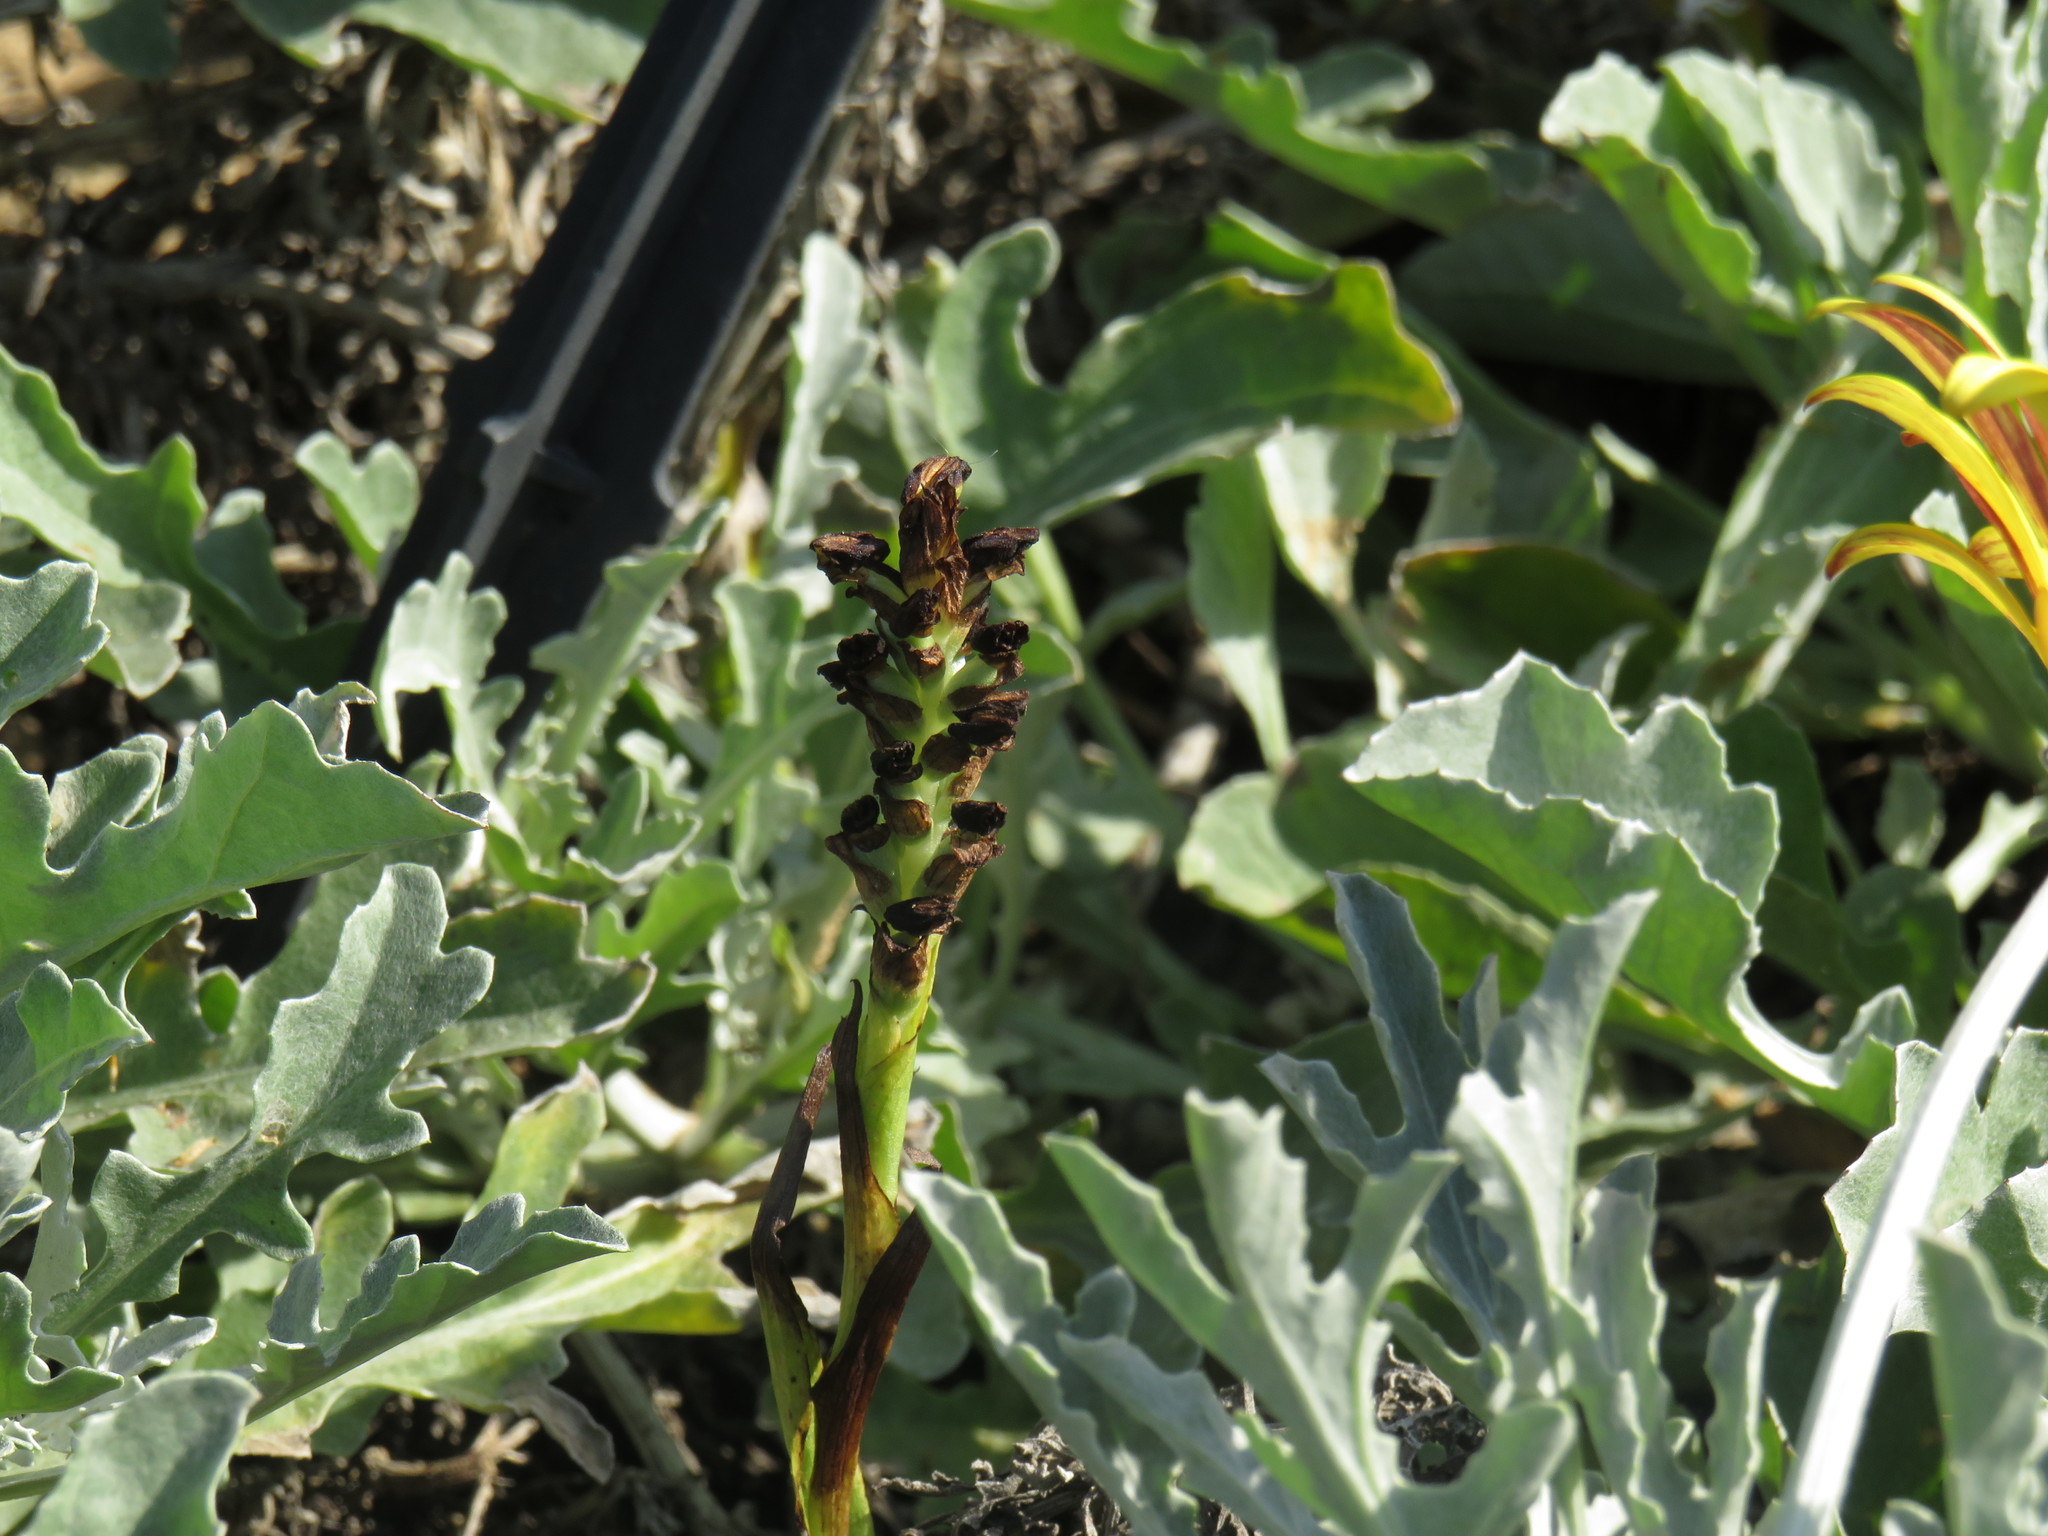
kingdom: Plantae
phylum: Tracheophyta
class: Liliopsida
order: Asparagales
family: Orchidaceae
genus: Corycium
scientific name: Corycium orobanchoides
